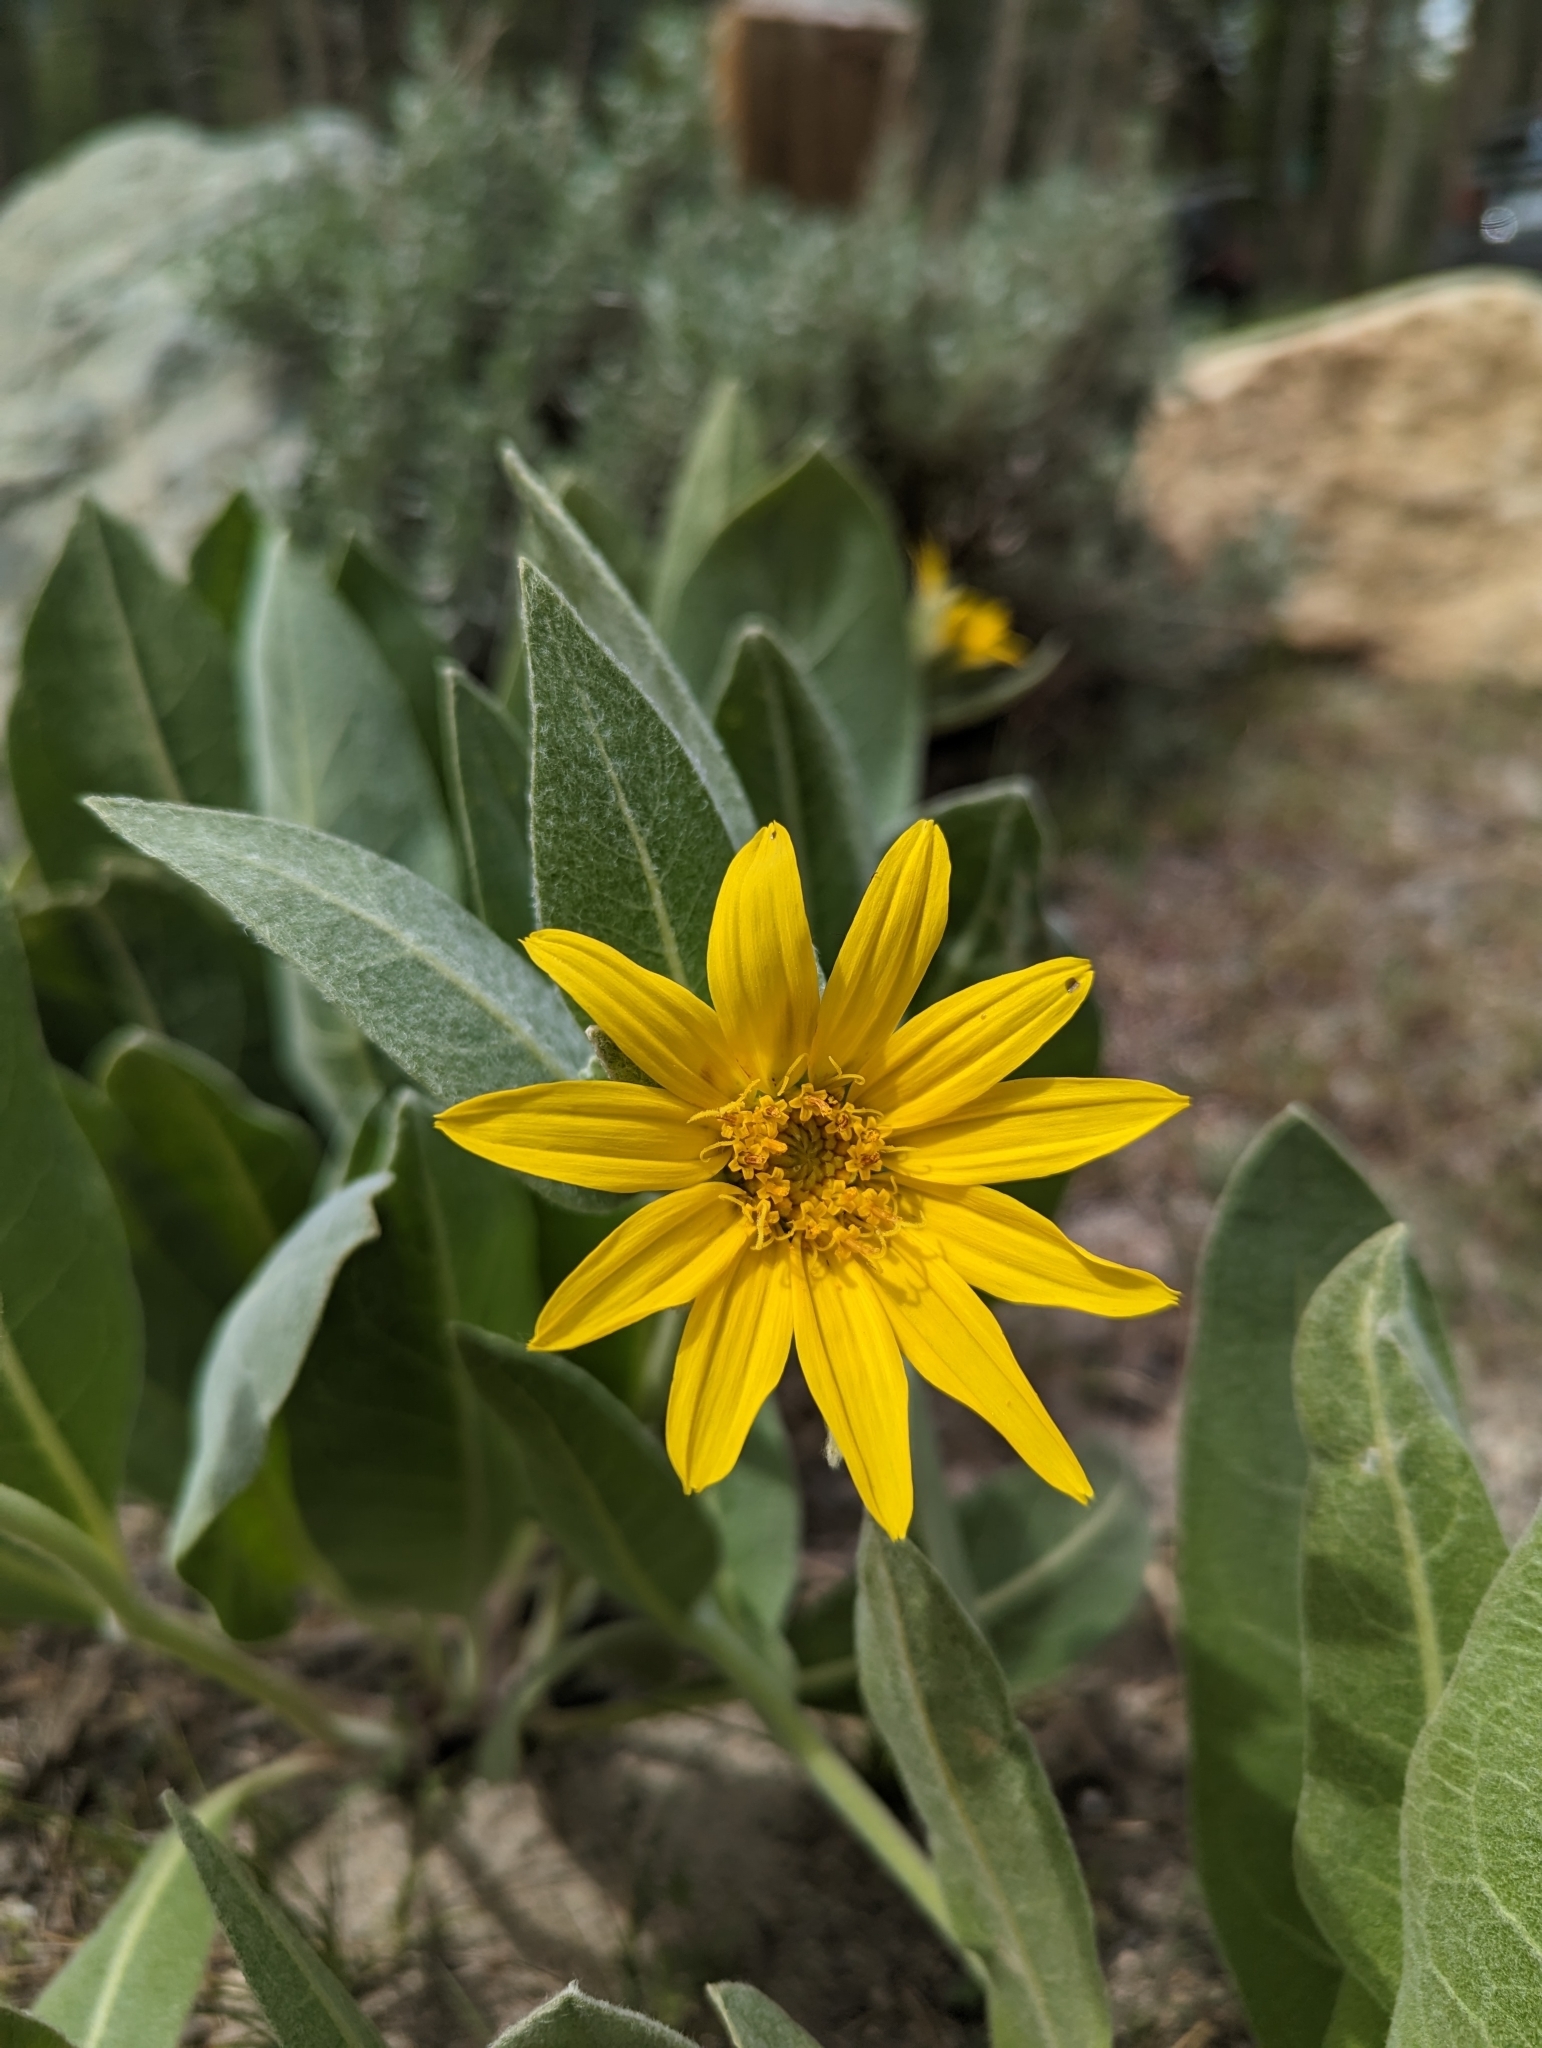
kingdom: Plantae
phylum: Tracheophyta
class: Magnoliopsida
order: Asterales
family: Asteraceae
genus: Wyethia
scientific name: Wyethia mollis
